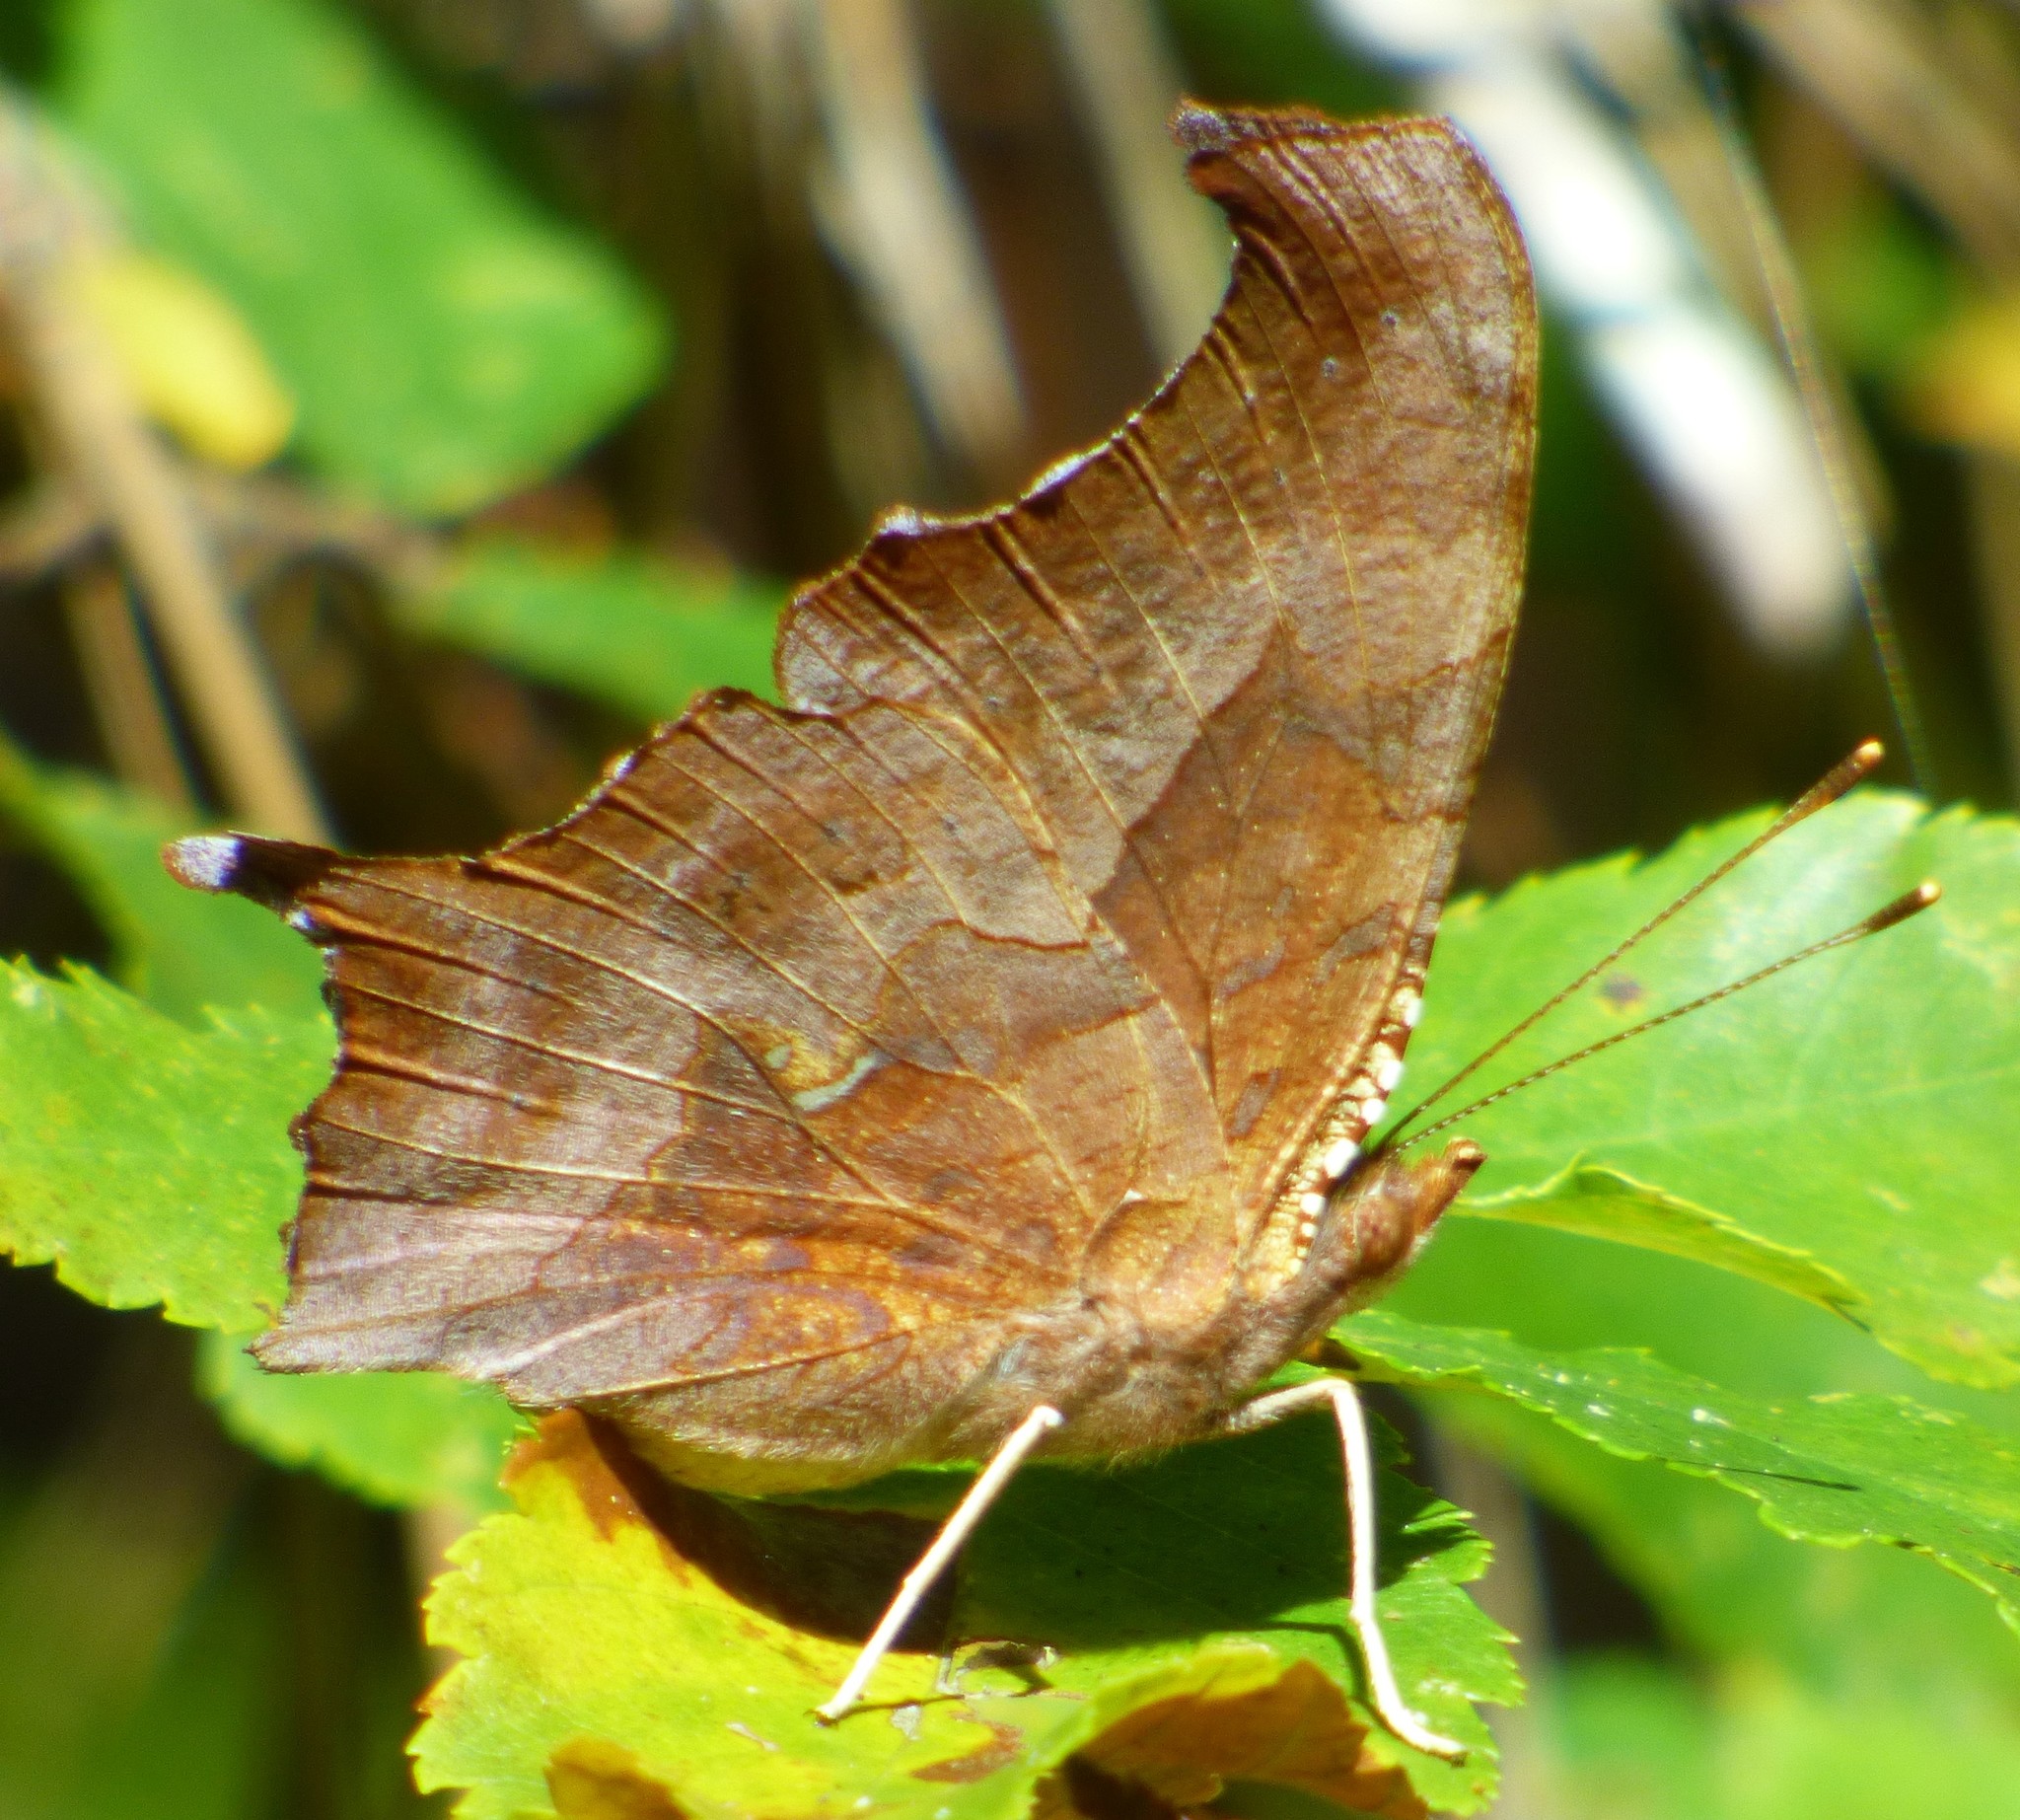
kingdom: Animalia
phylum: Arthropoda
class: Insecta
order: Lepidoptera
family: Nymphalidae
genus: Polygonia
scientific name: Polygonia interrogationis
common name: Question mark
